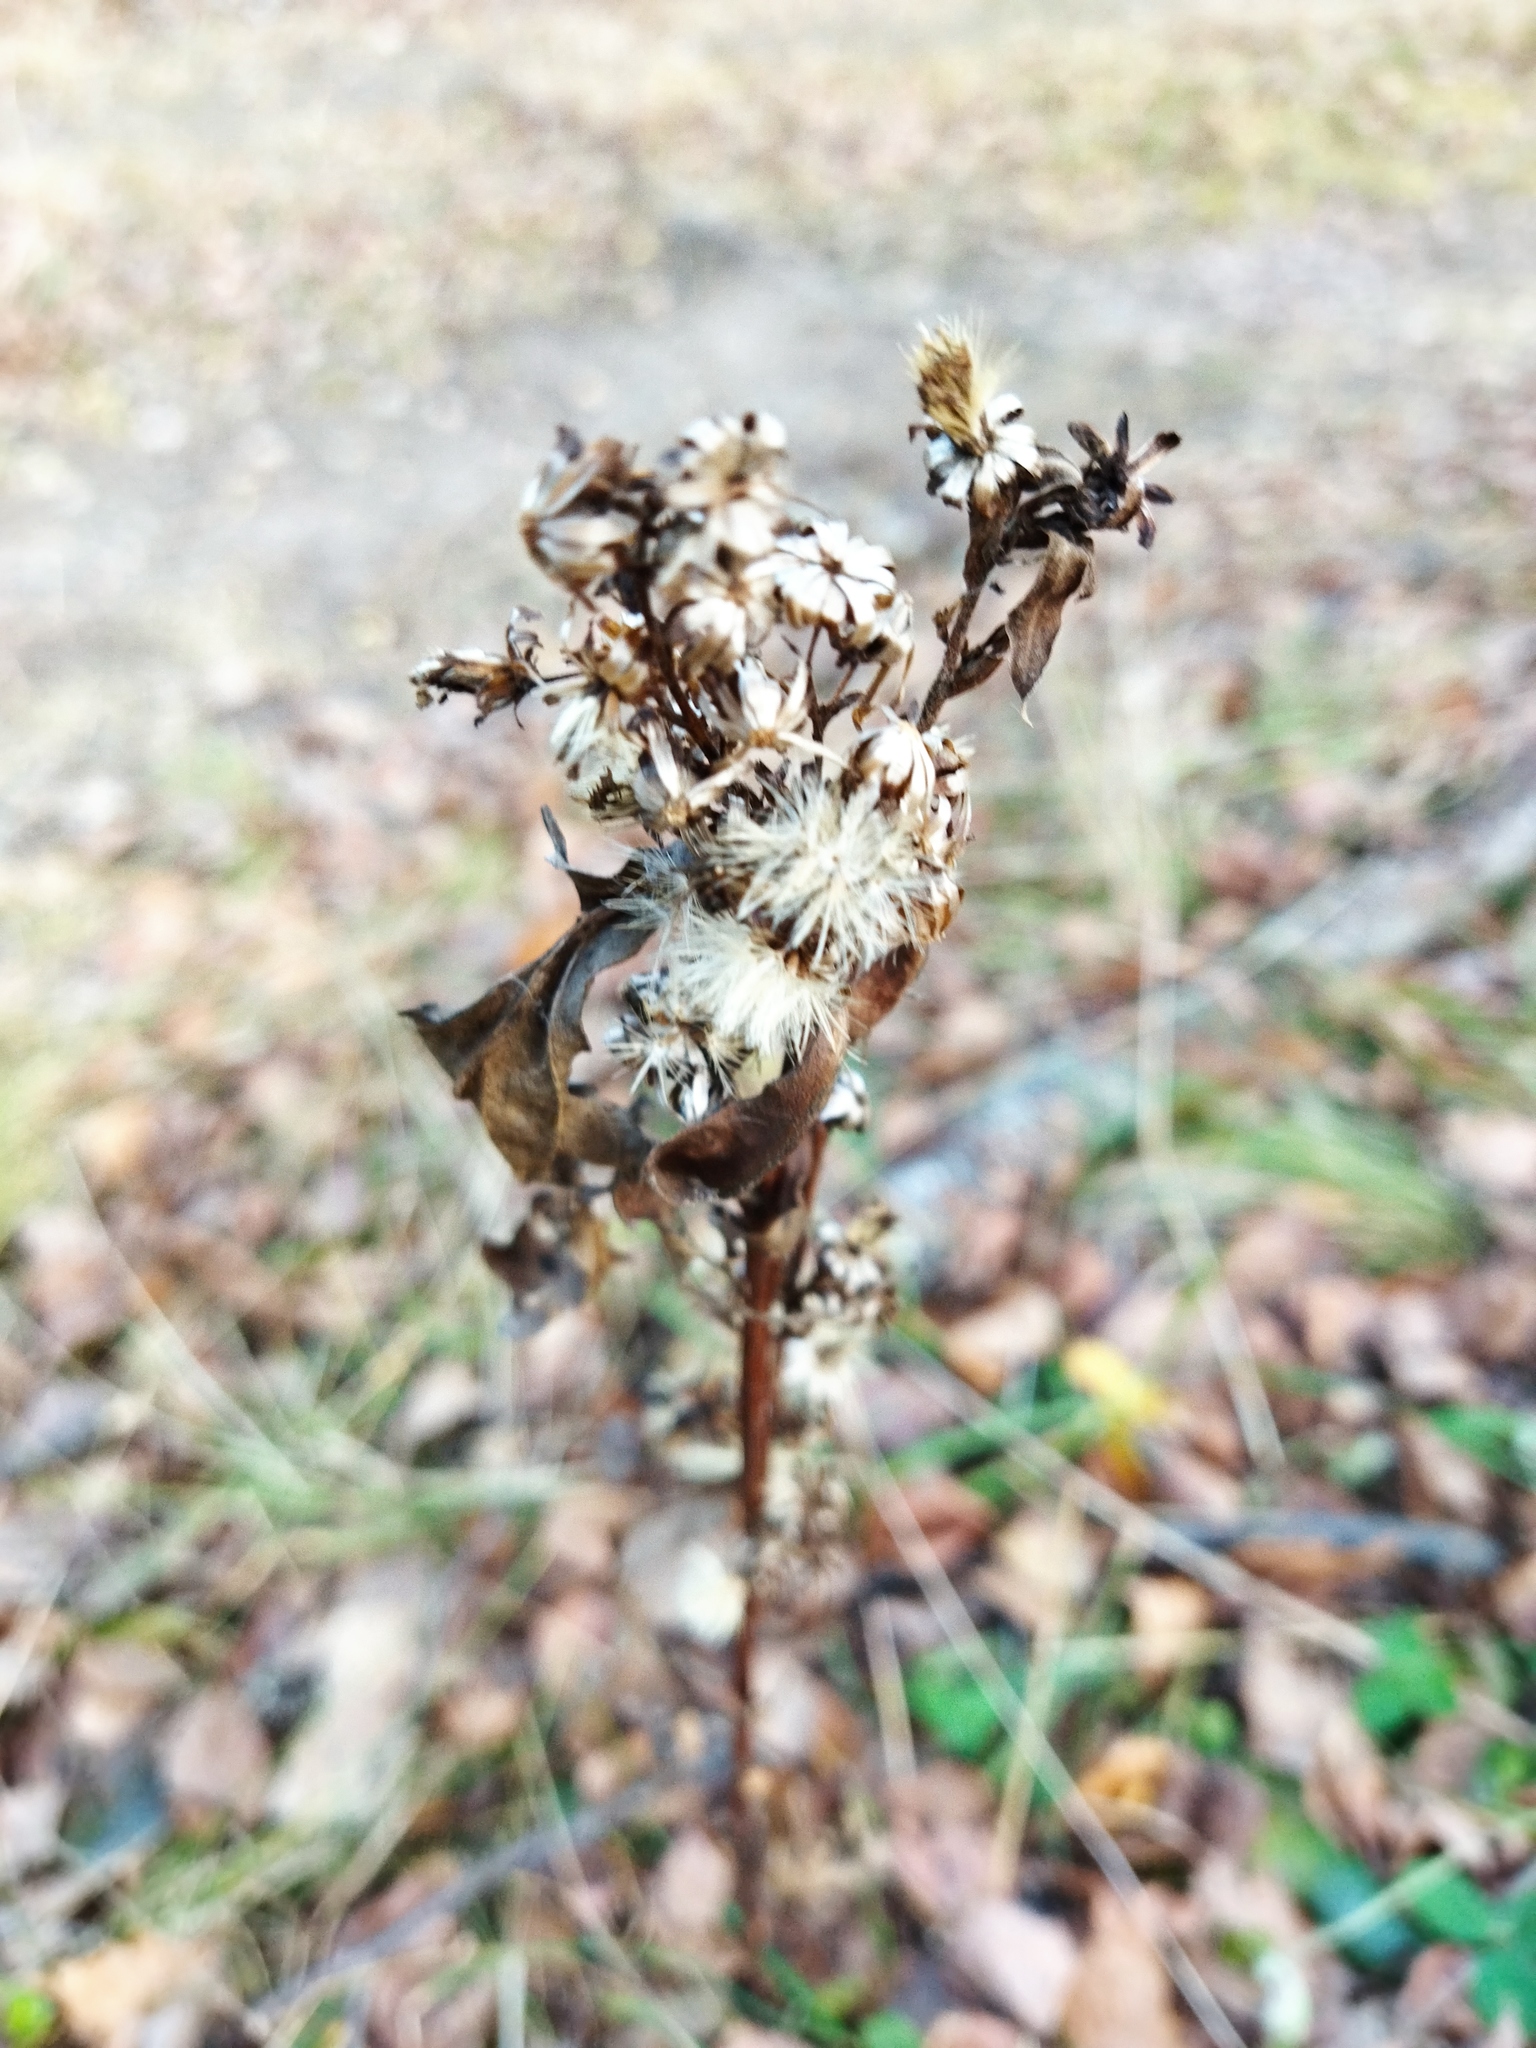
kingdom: Plantae
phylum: Tracheophyta
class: Magnoliopsida
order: Asterales
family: Asteraceae
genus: Solidago
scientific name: Solidago virgaurea
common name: Goldenrod
